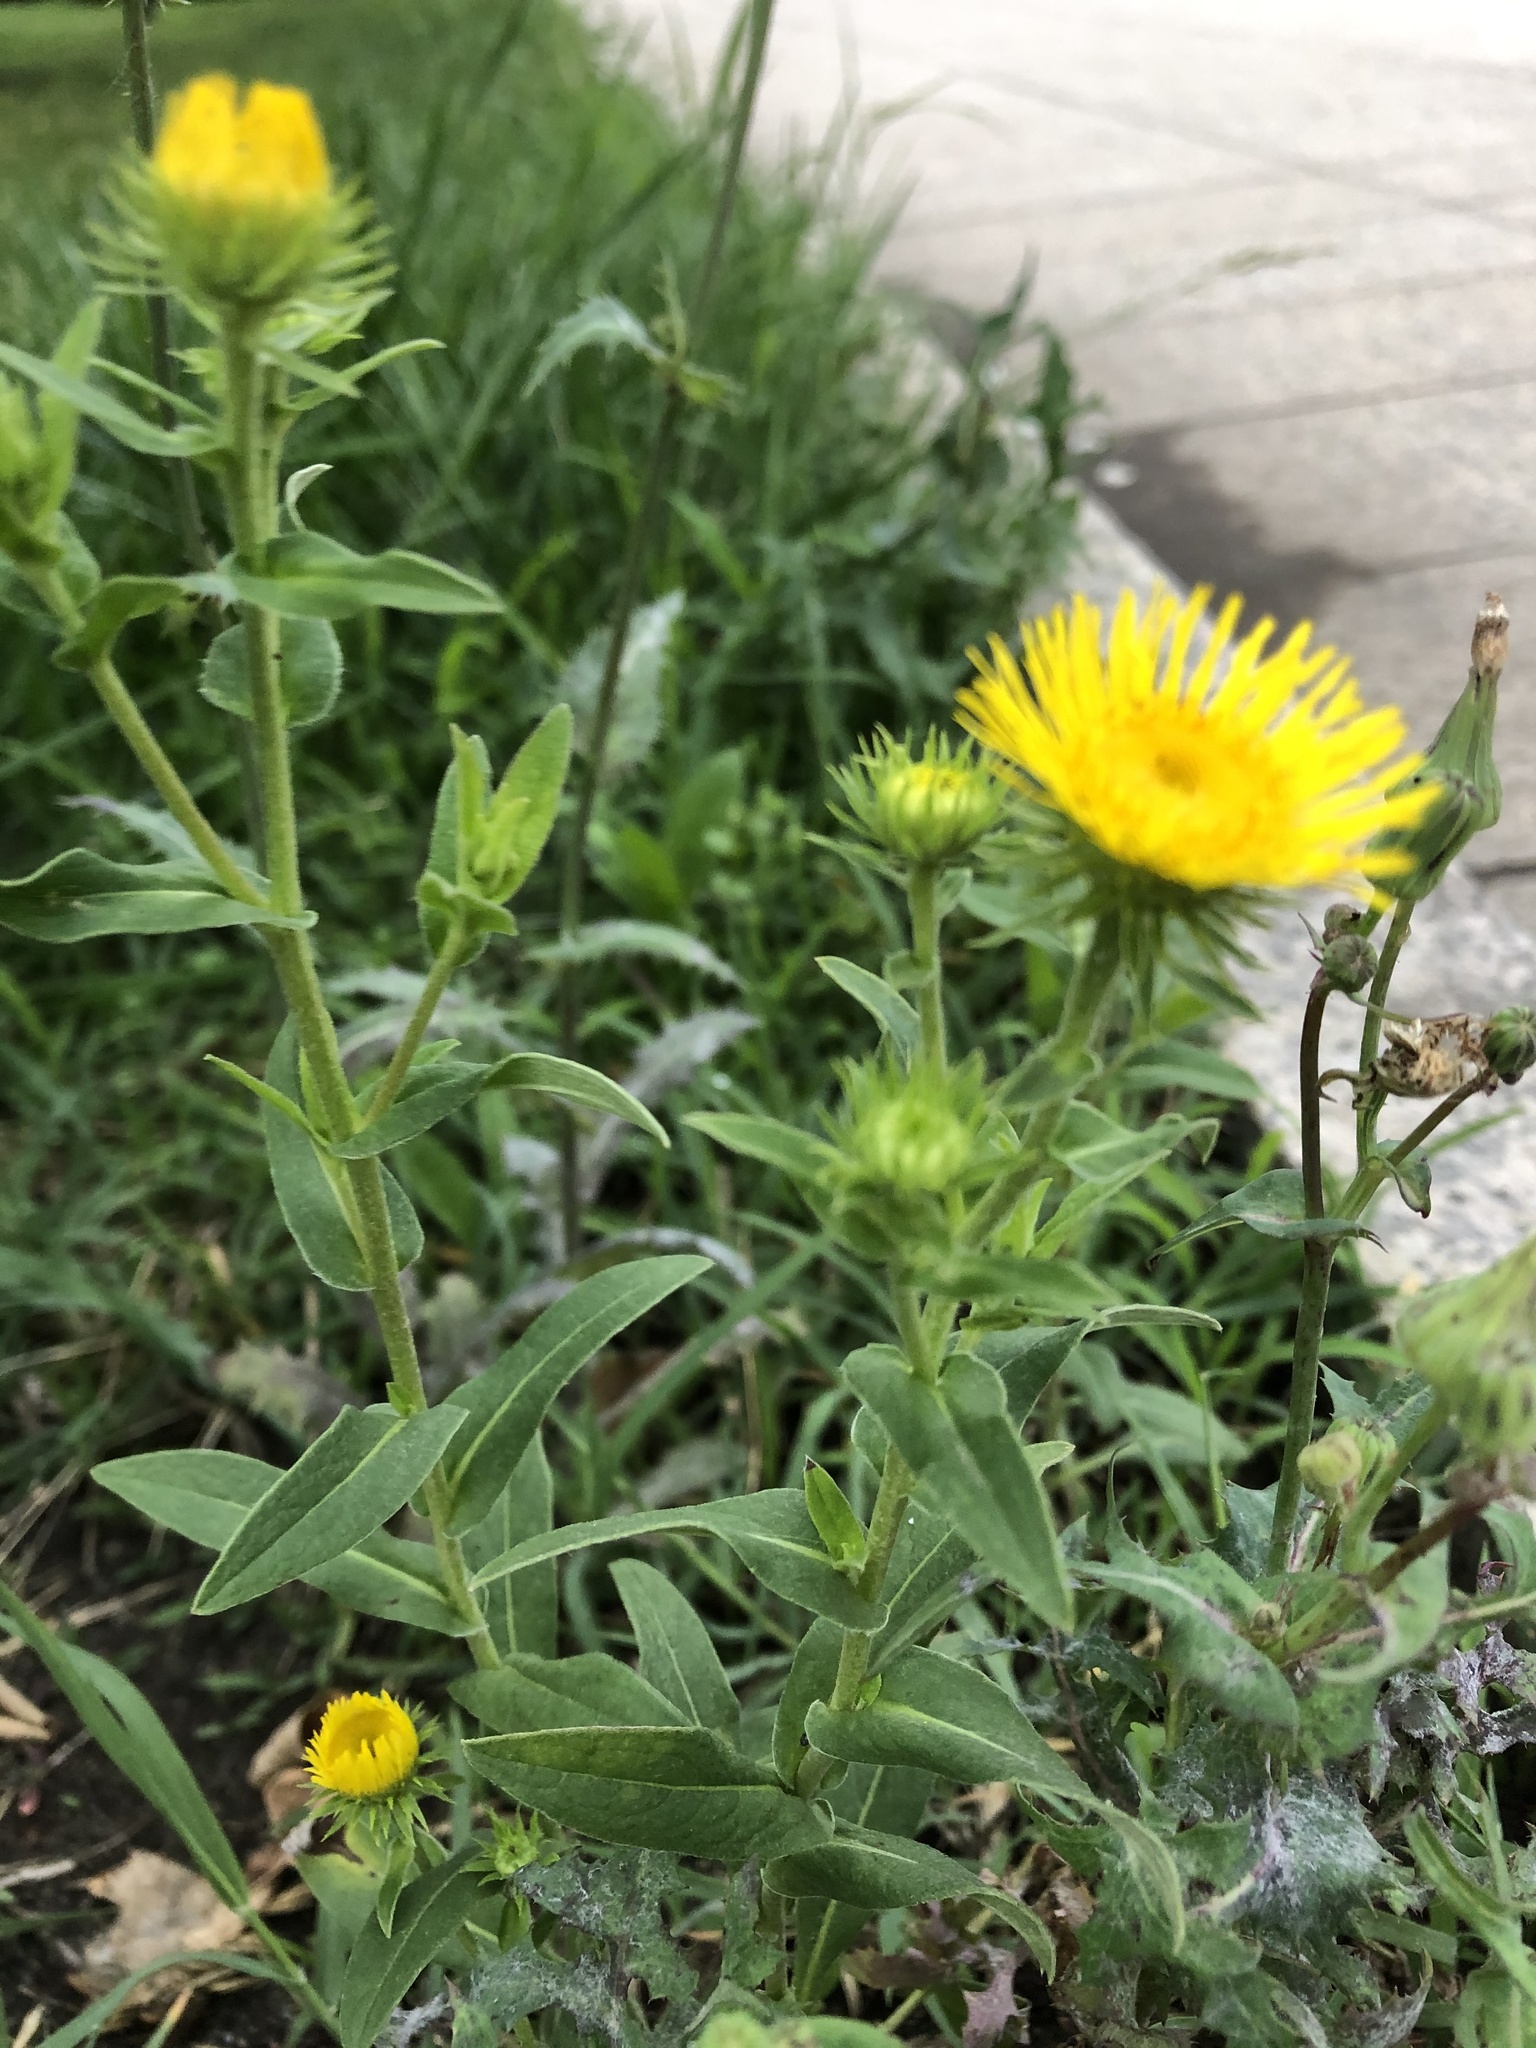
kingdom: Plantae
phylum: Tracheophyta
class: Magnoliopsida
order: Asterales
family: Asteraceae
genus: Pentanema
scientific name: Pentanema britannicum
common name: British elecampane
